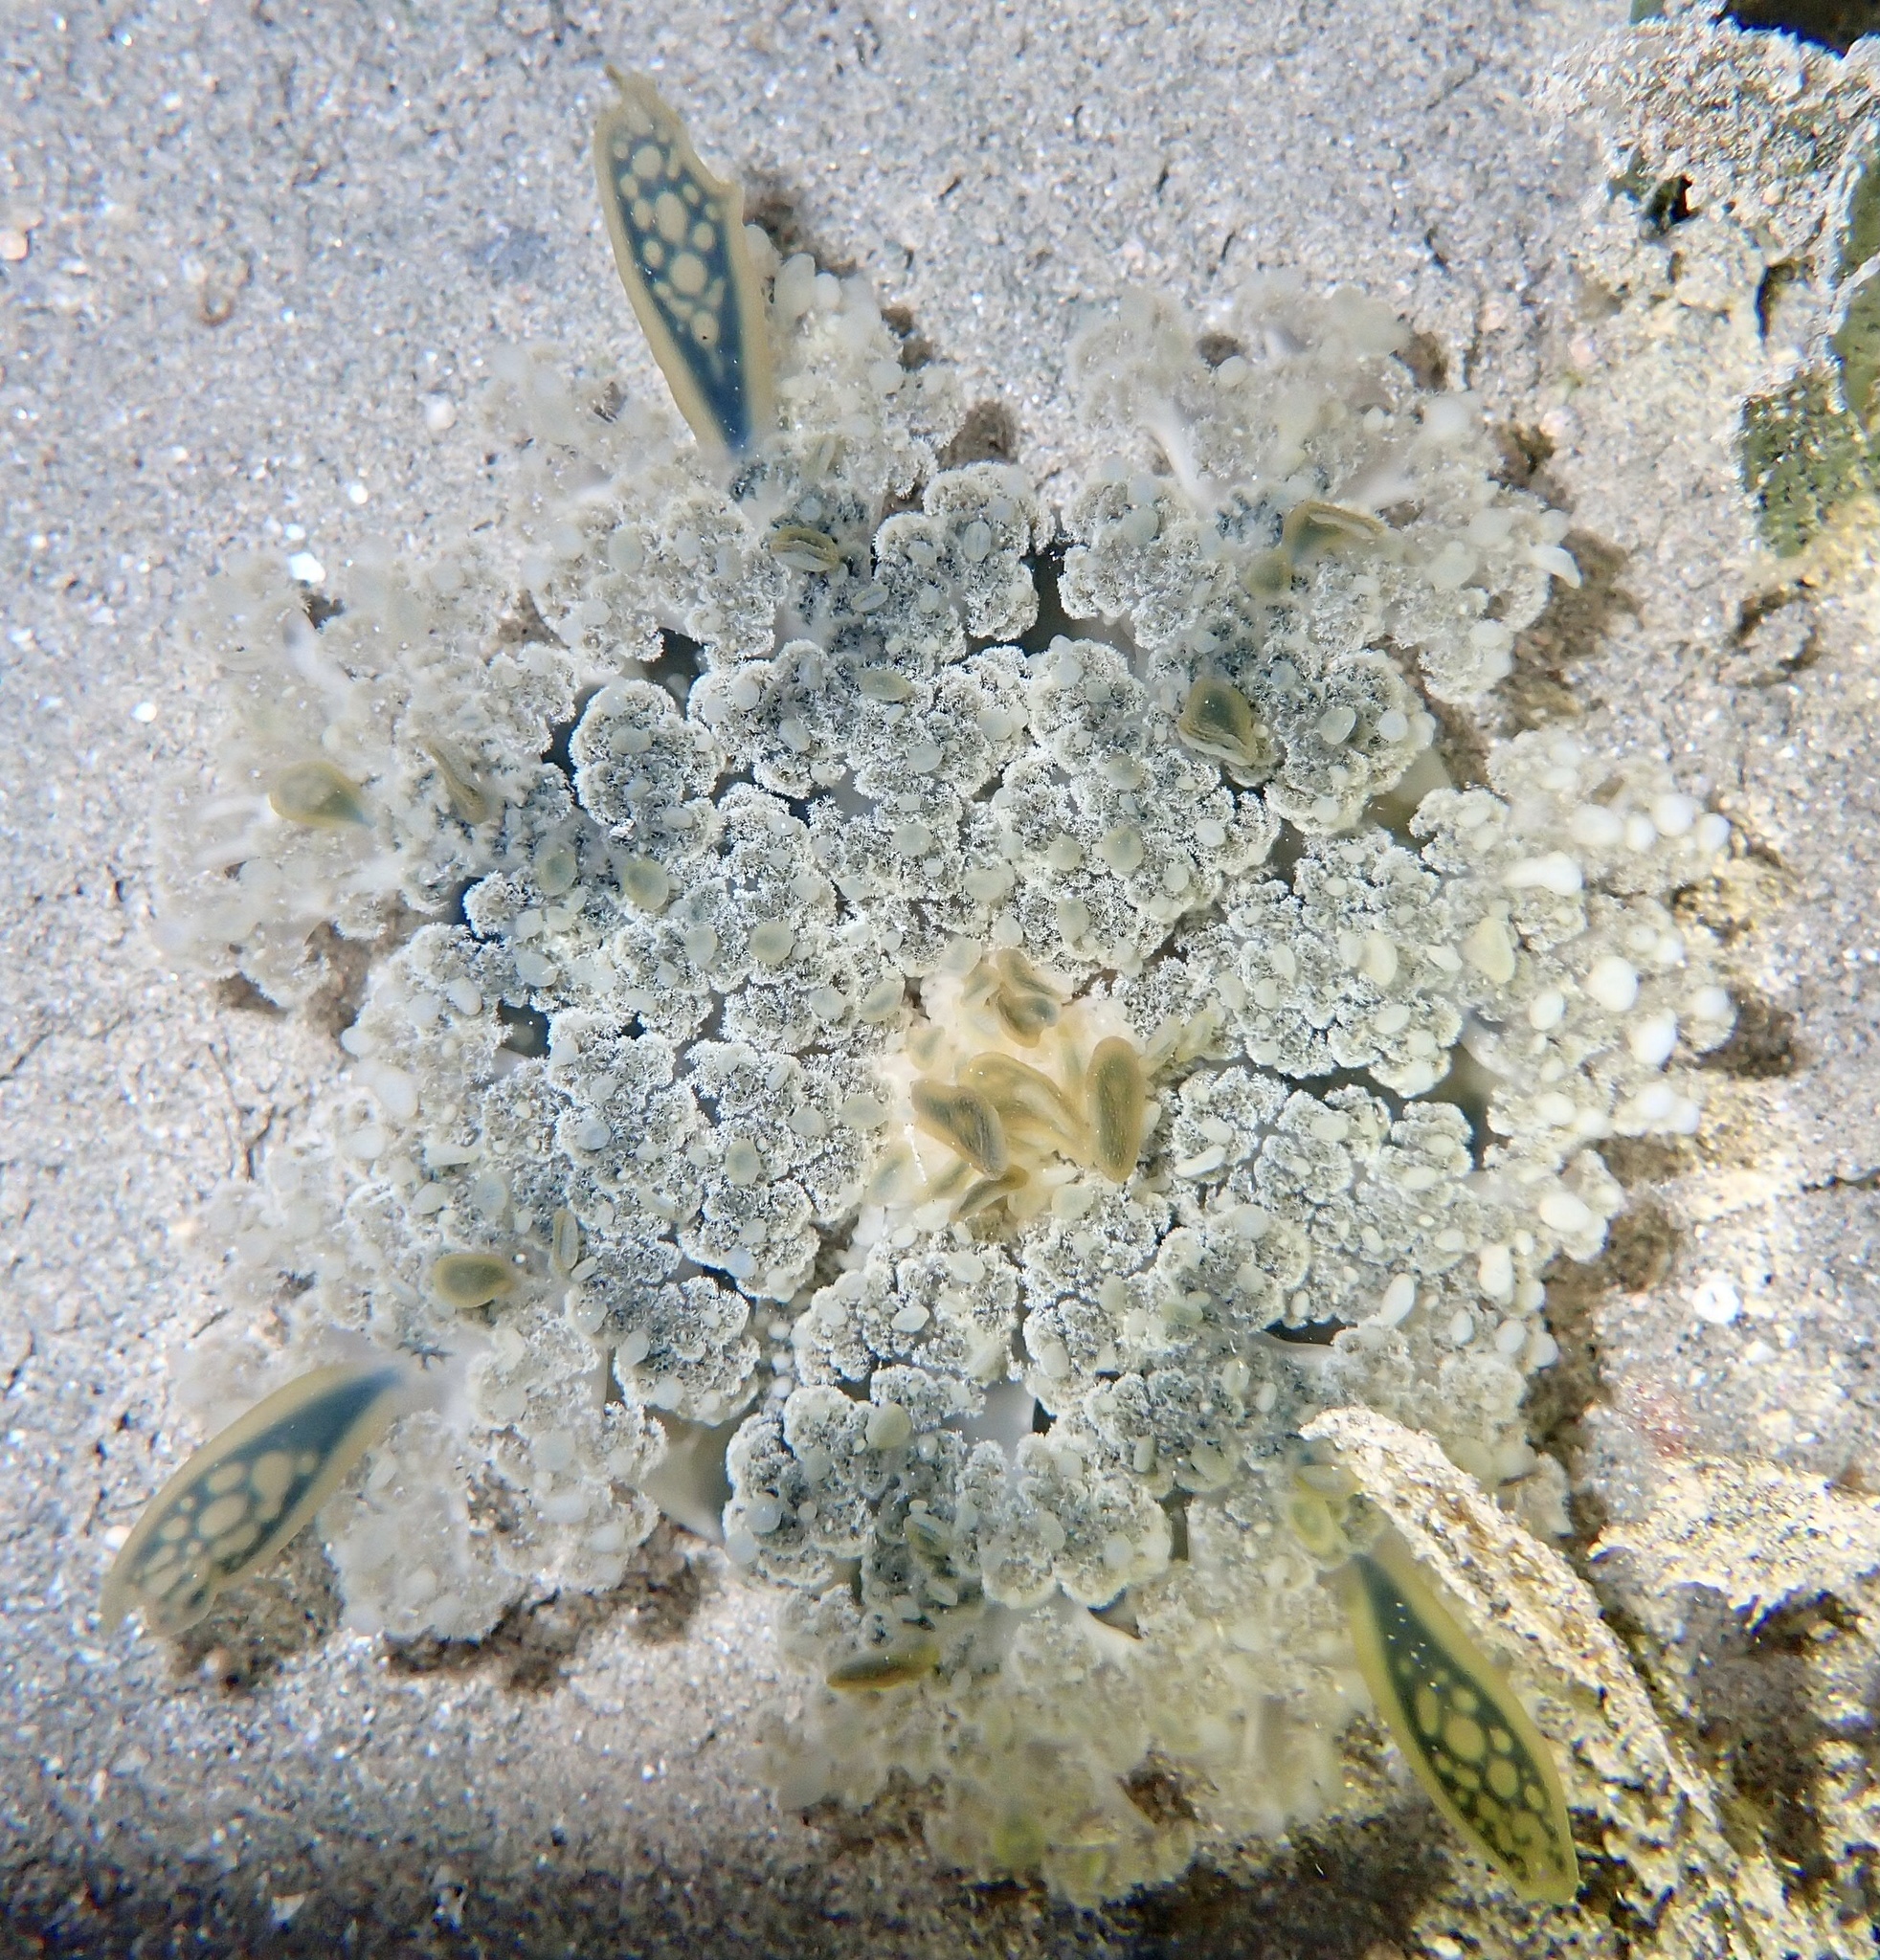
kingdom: Animalia
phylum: Cnidaria
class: Scyphozoa
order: Rhizostomeae
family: Cassiopeidae
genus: Cassiopea
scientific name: Cassiopea andromeda
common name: Upside-down jellyfish
